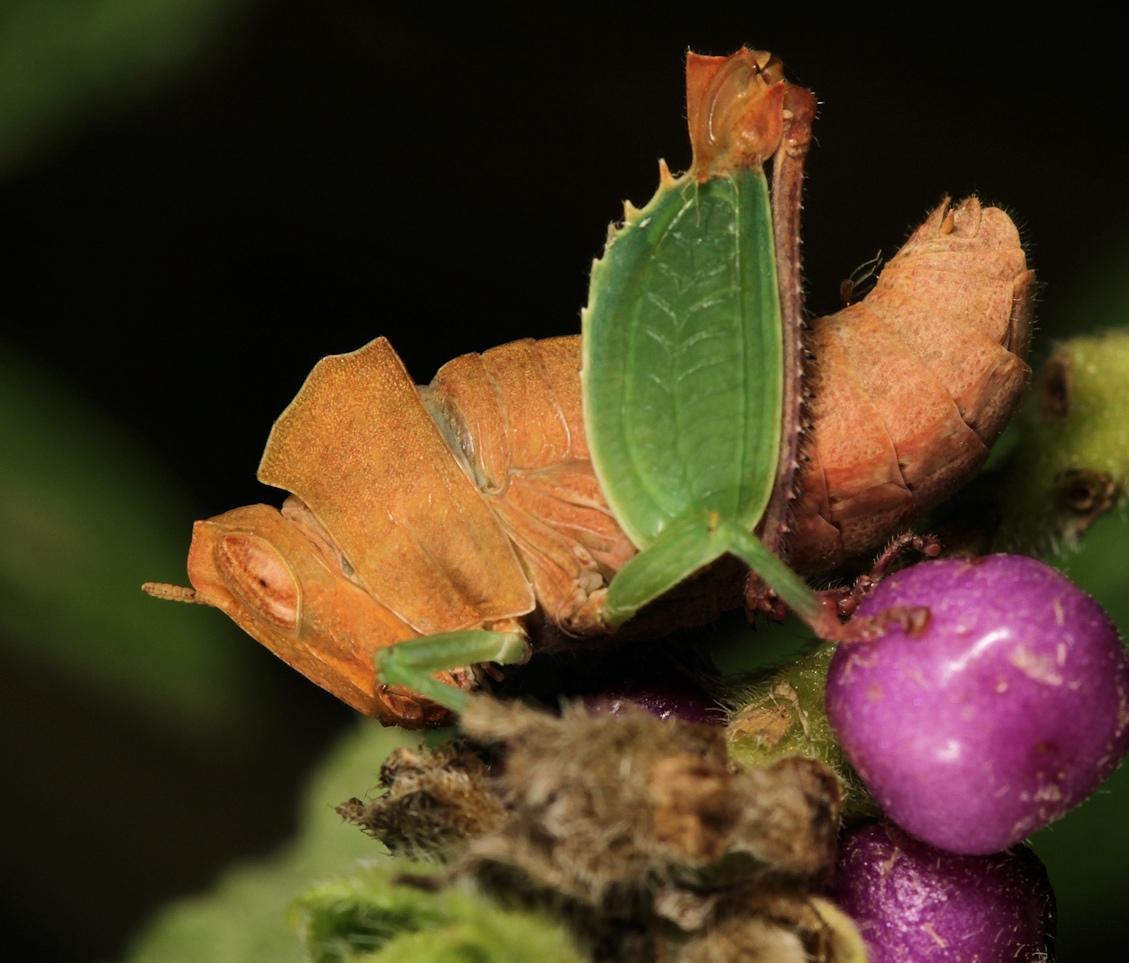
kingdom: Animalia
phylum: Arthropoda
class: Insecta
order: Orthoptera
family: Thericleidae
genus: Schulthessiella
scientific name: Schulthessiella minuta
